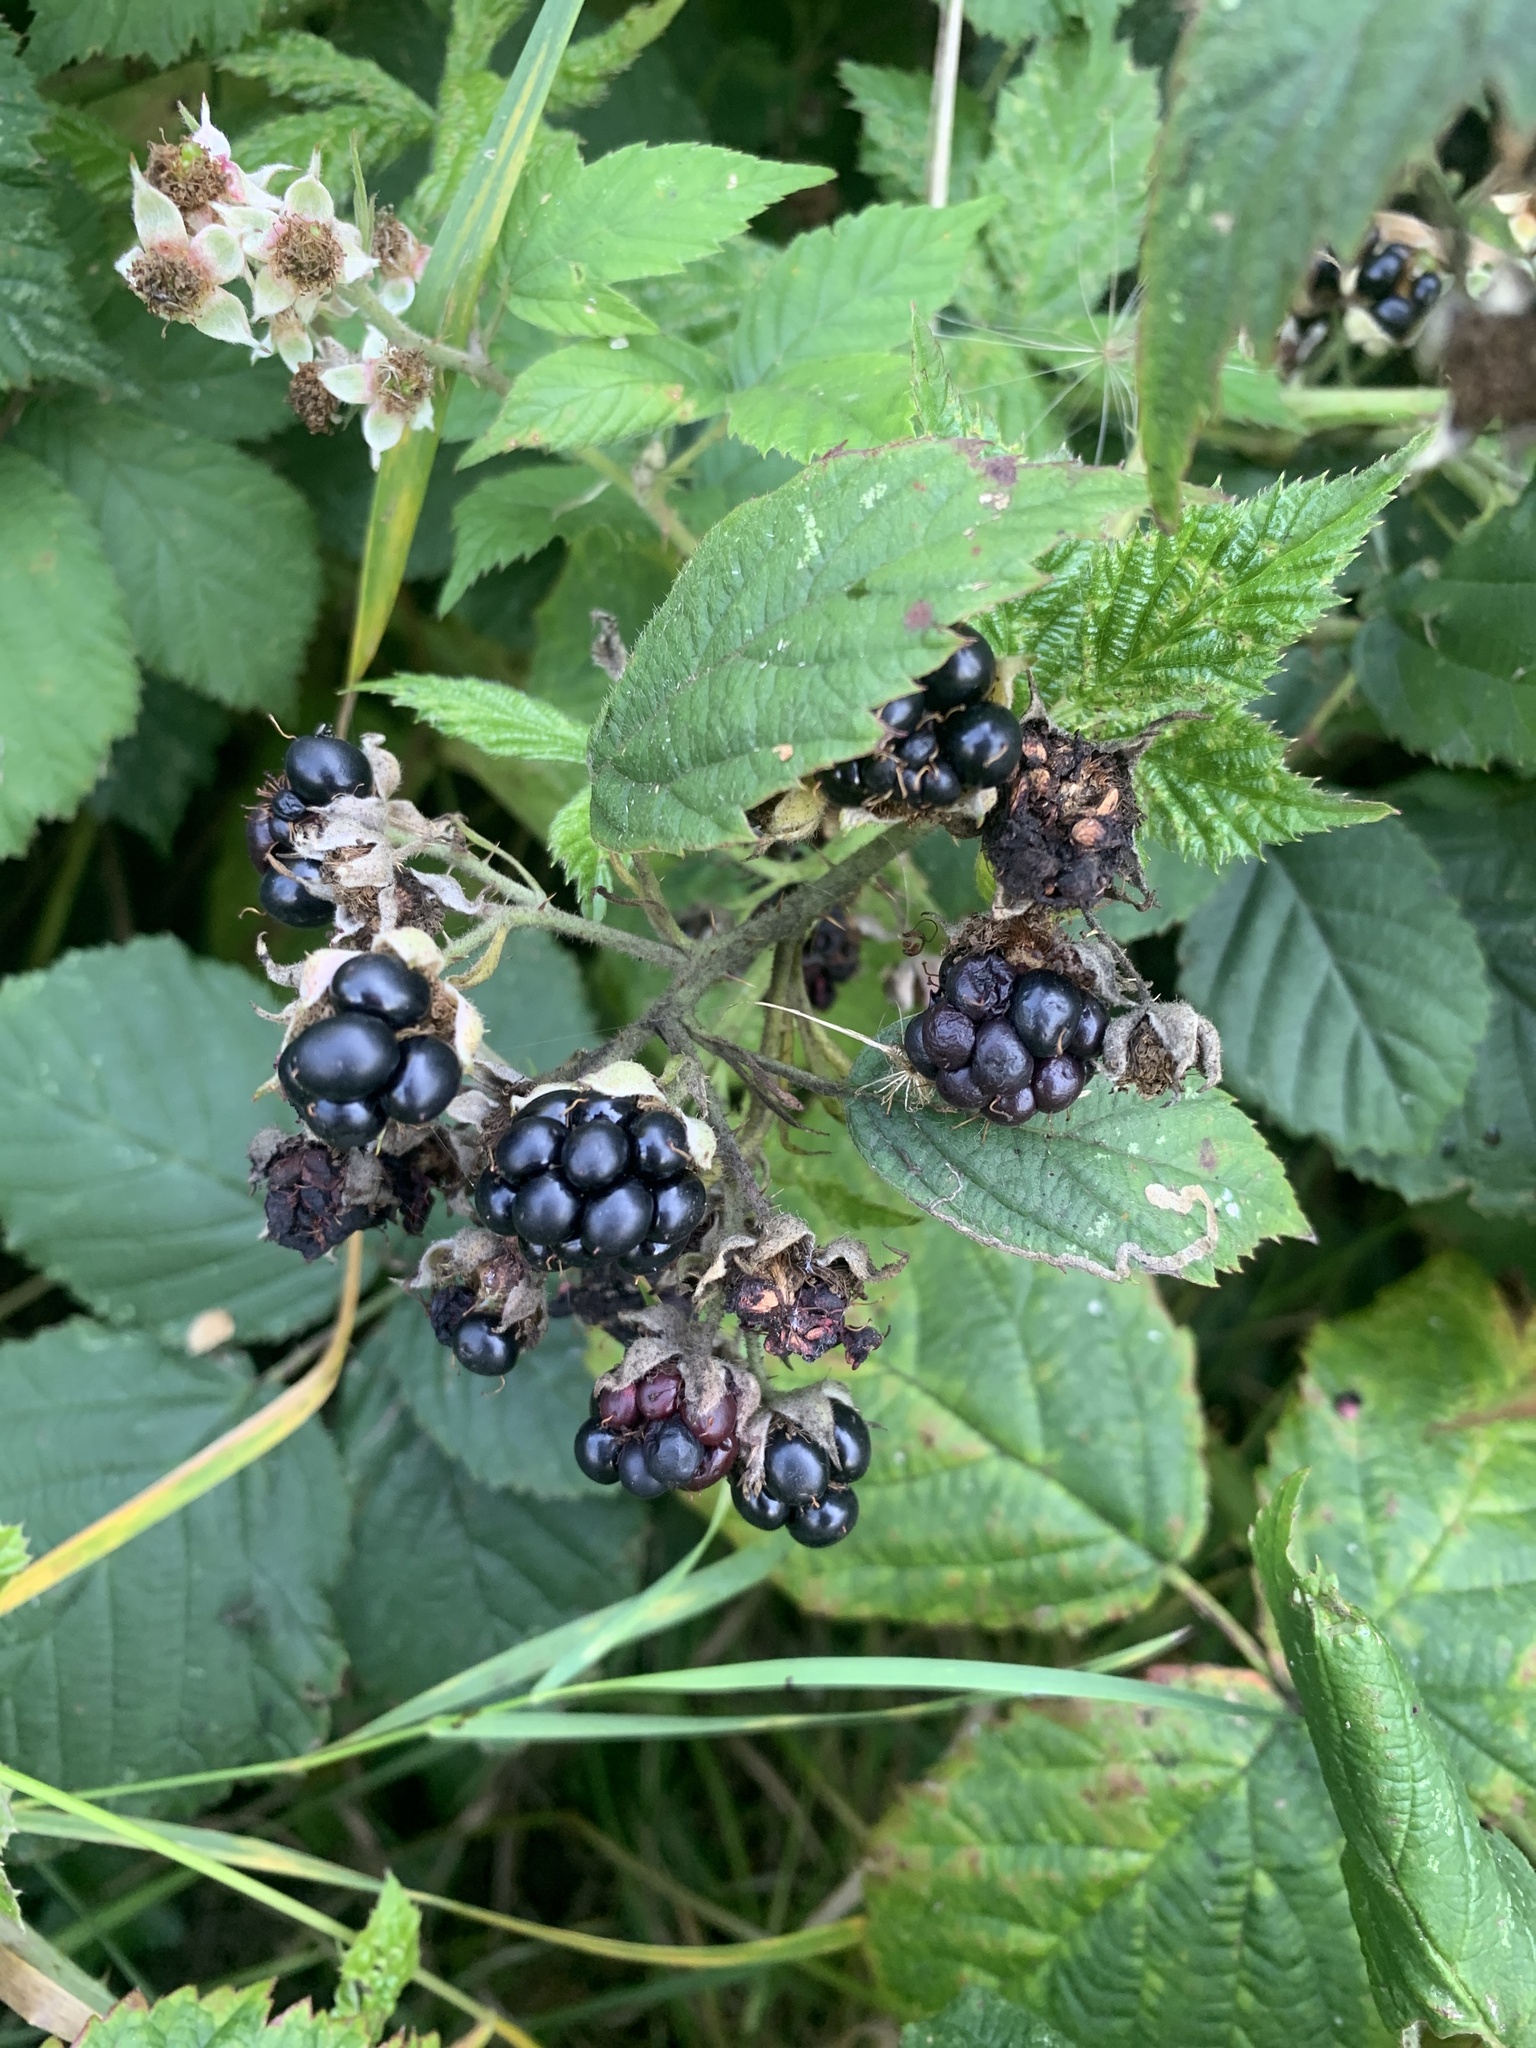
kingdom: Plantae
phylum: Tracheophyta
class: Magnoliopsida
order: Rosales
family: Rosaceae
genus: Rubus
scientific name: Rubus fruticosus
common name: Blackberry, bramble
